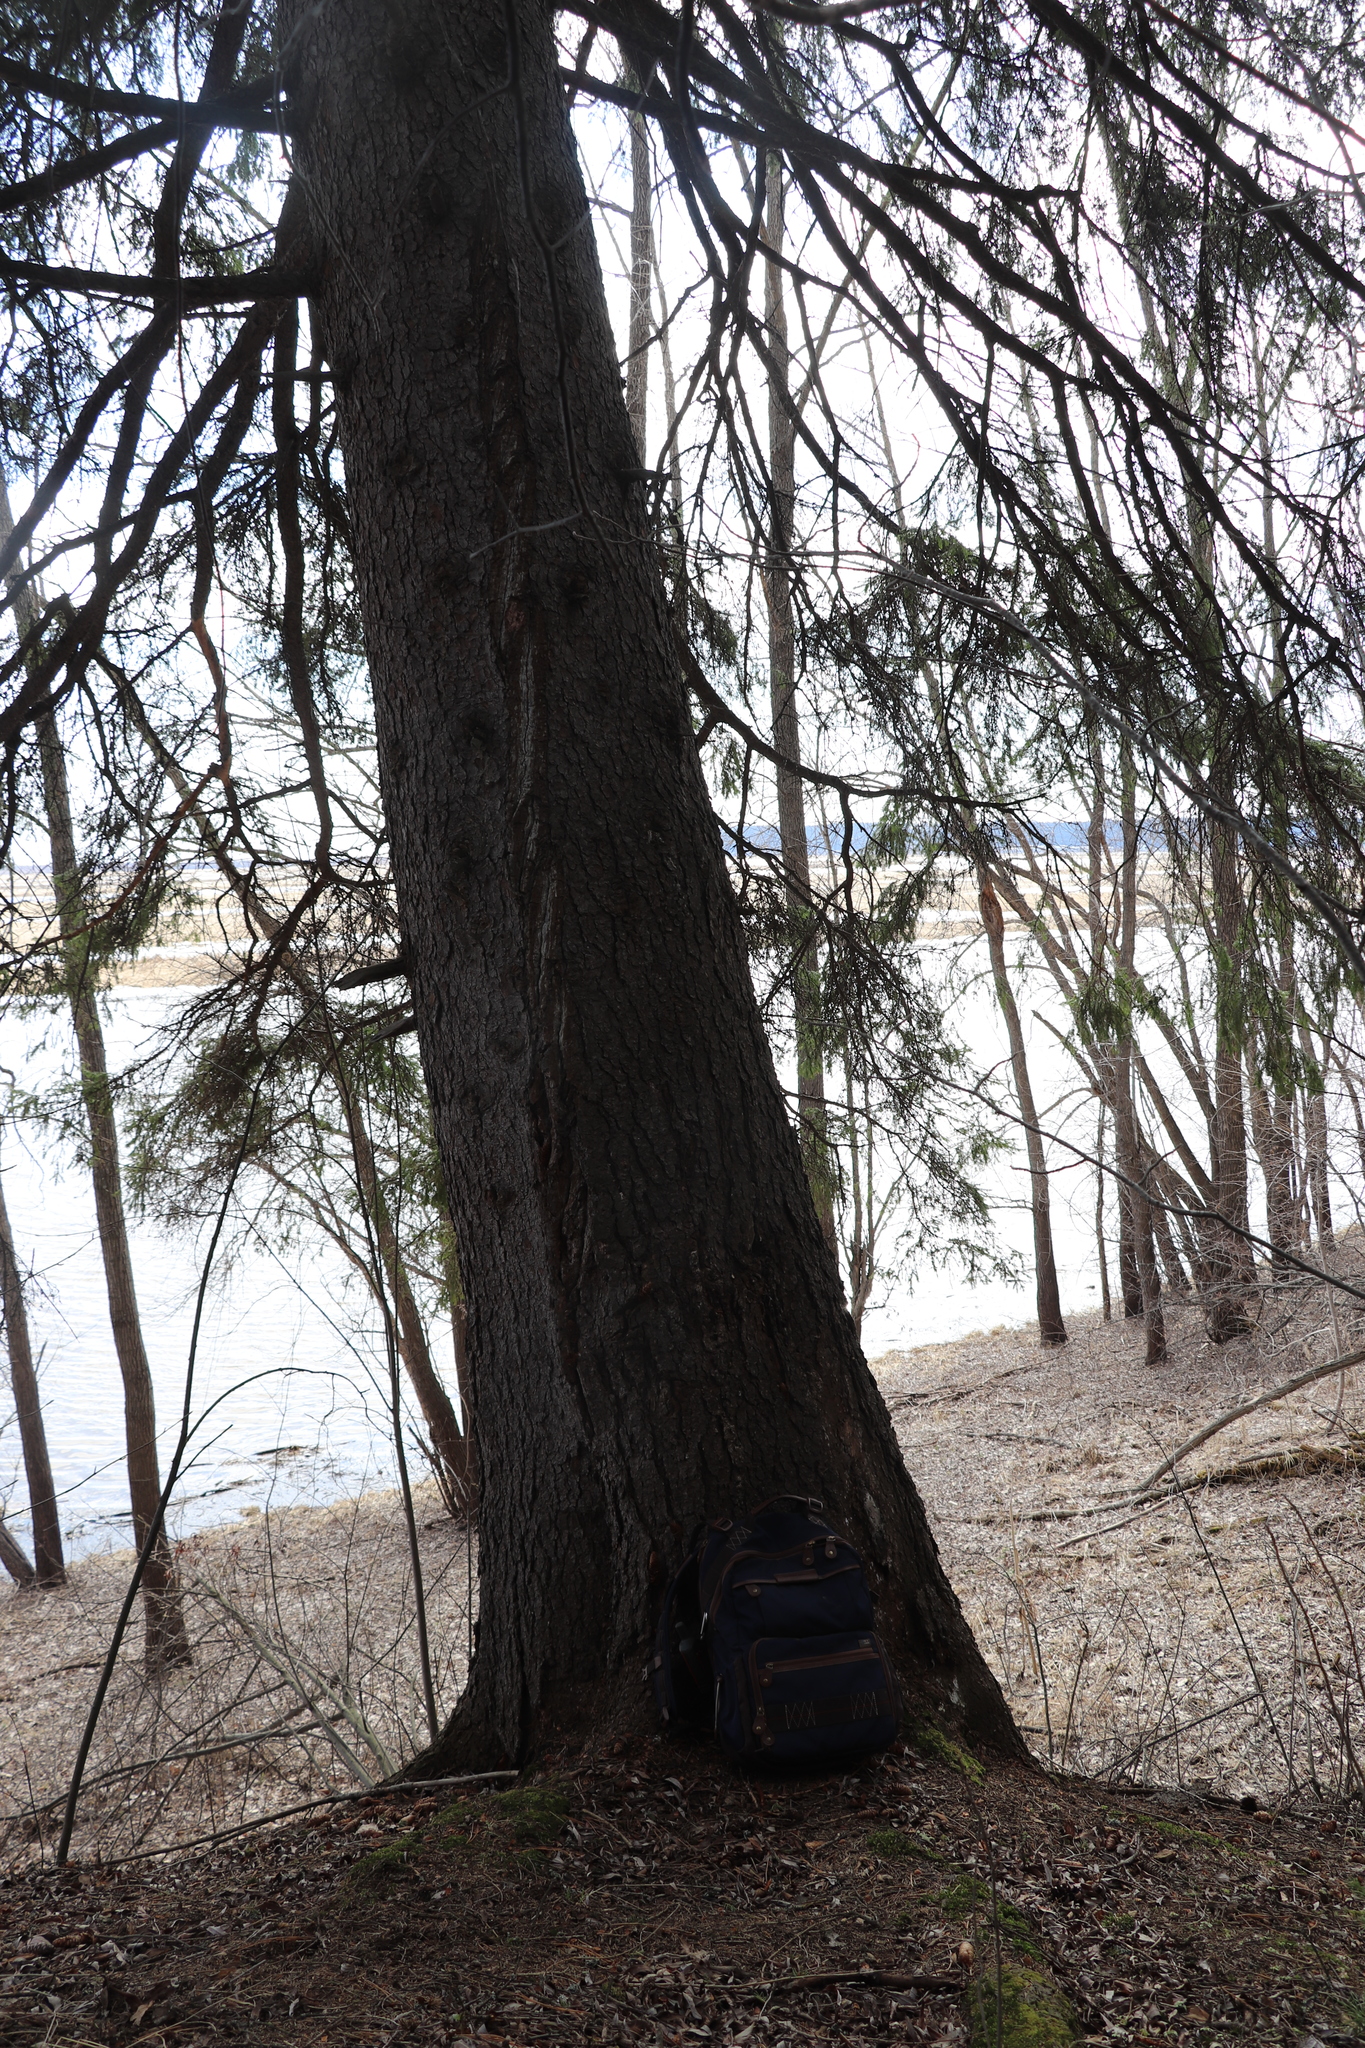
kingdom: Plantae
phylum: Tracheophyta
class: Pinopsida
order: Pinales
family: Pinaceae
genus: Picea
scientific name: Picea obovata
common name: Siberian spruce
